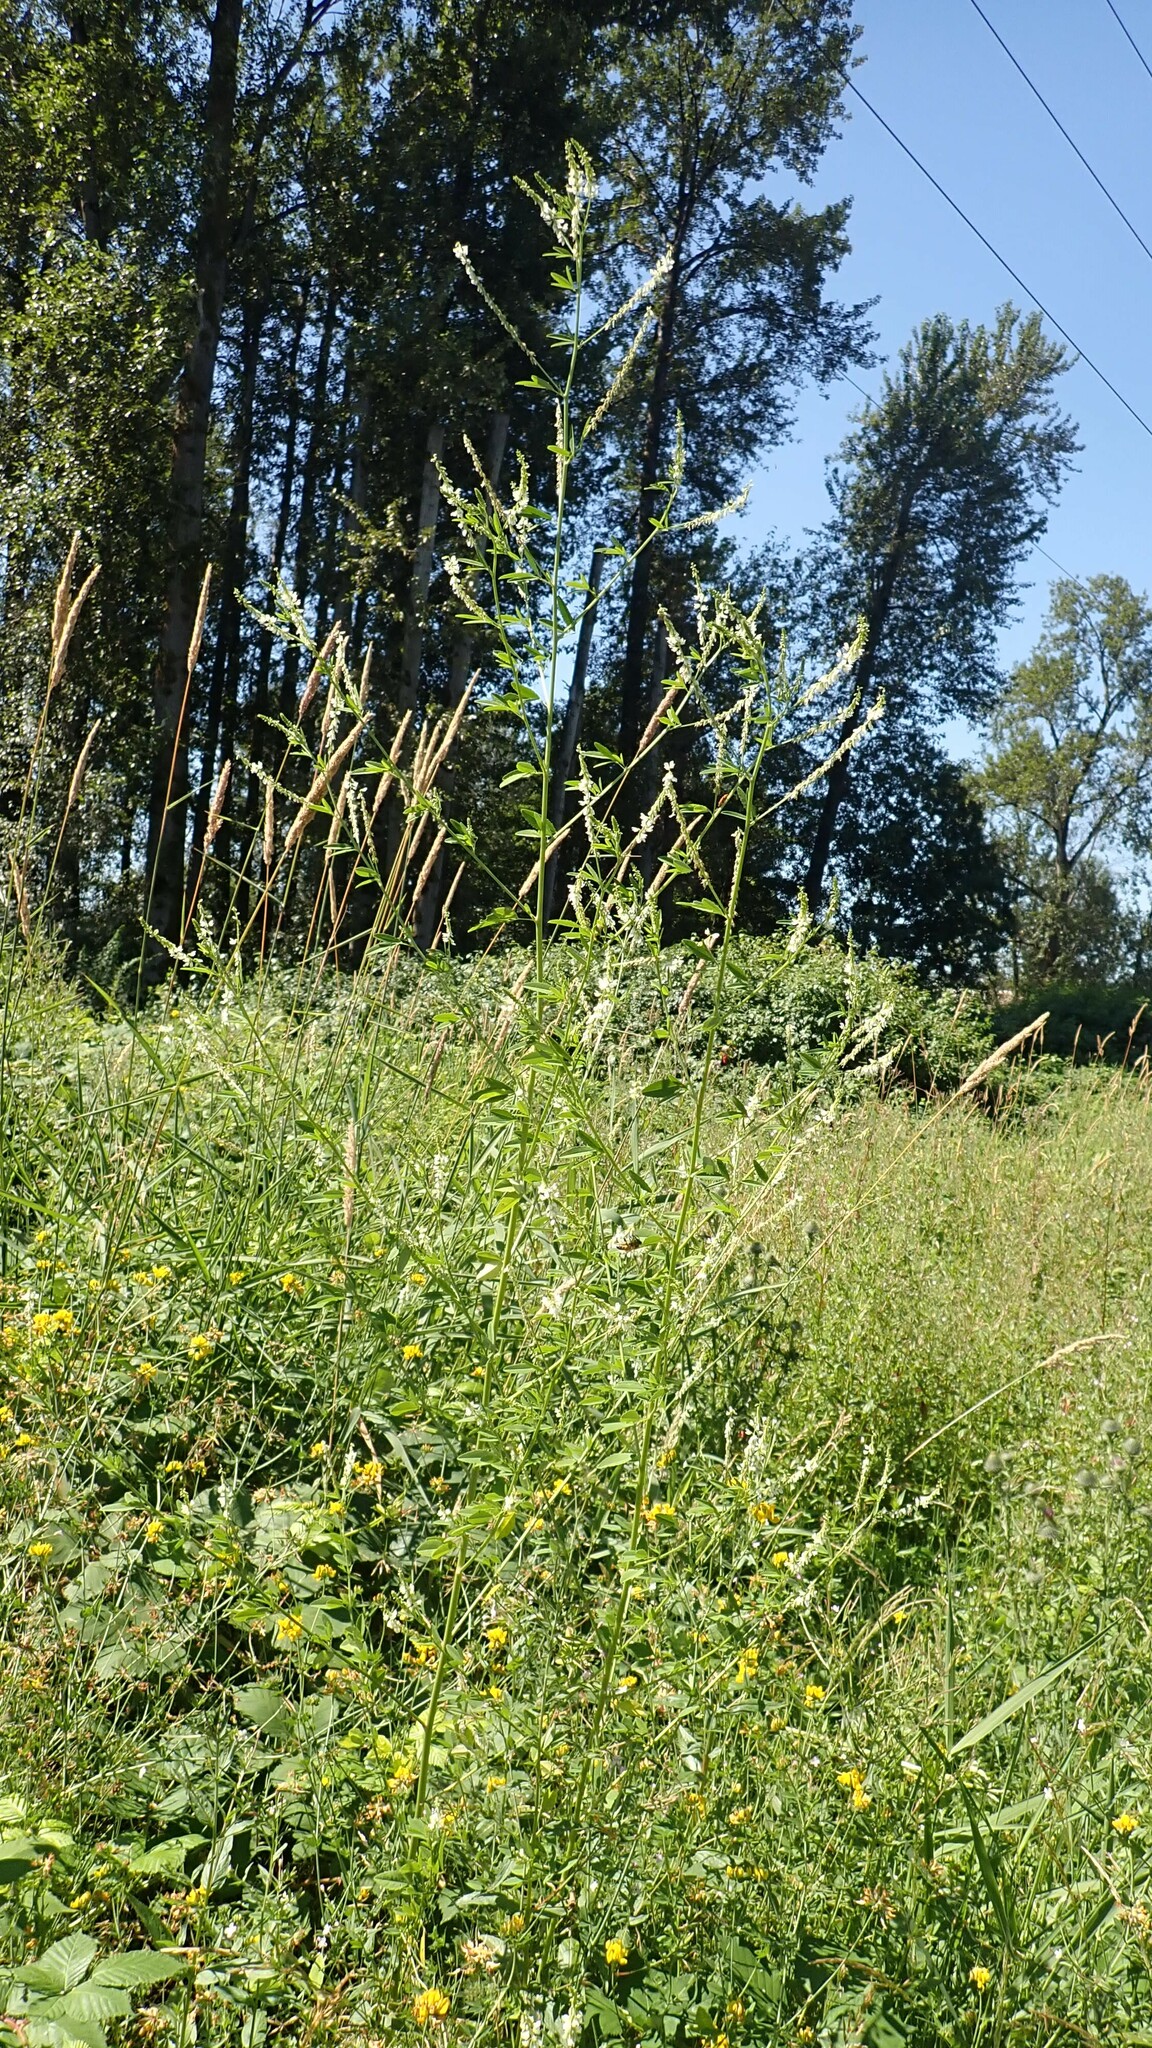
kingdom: Plantae
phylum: Tracheophyta
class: Magnoliopsida
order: Fabales
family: Fabaceae
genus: Melilotus
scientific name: Melilotus albus
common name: White melilot
